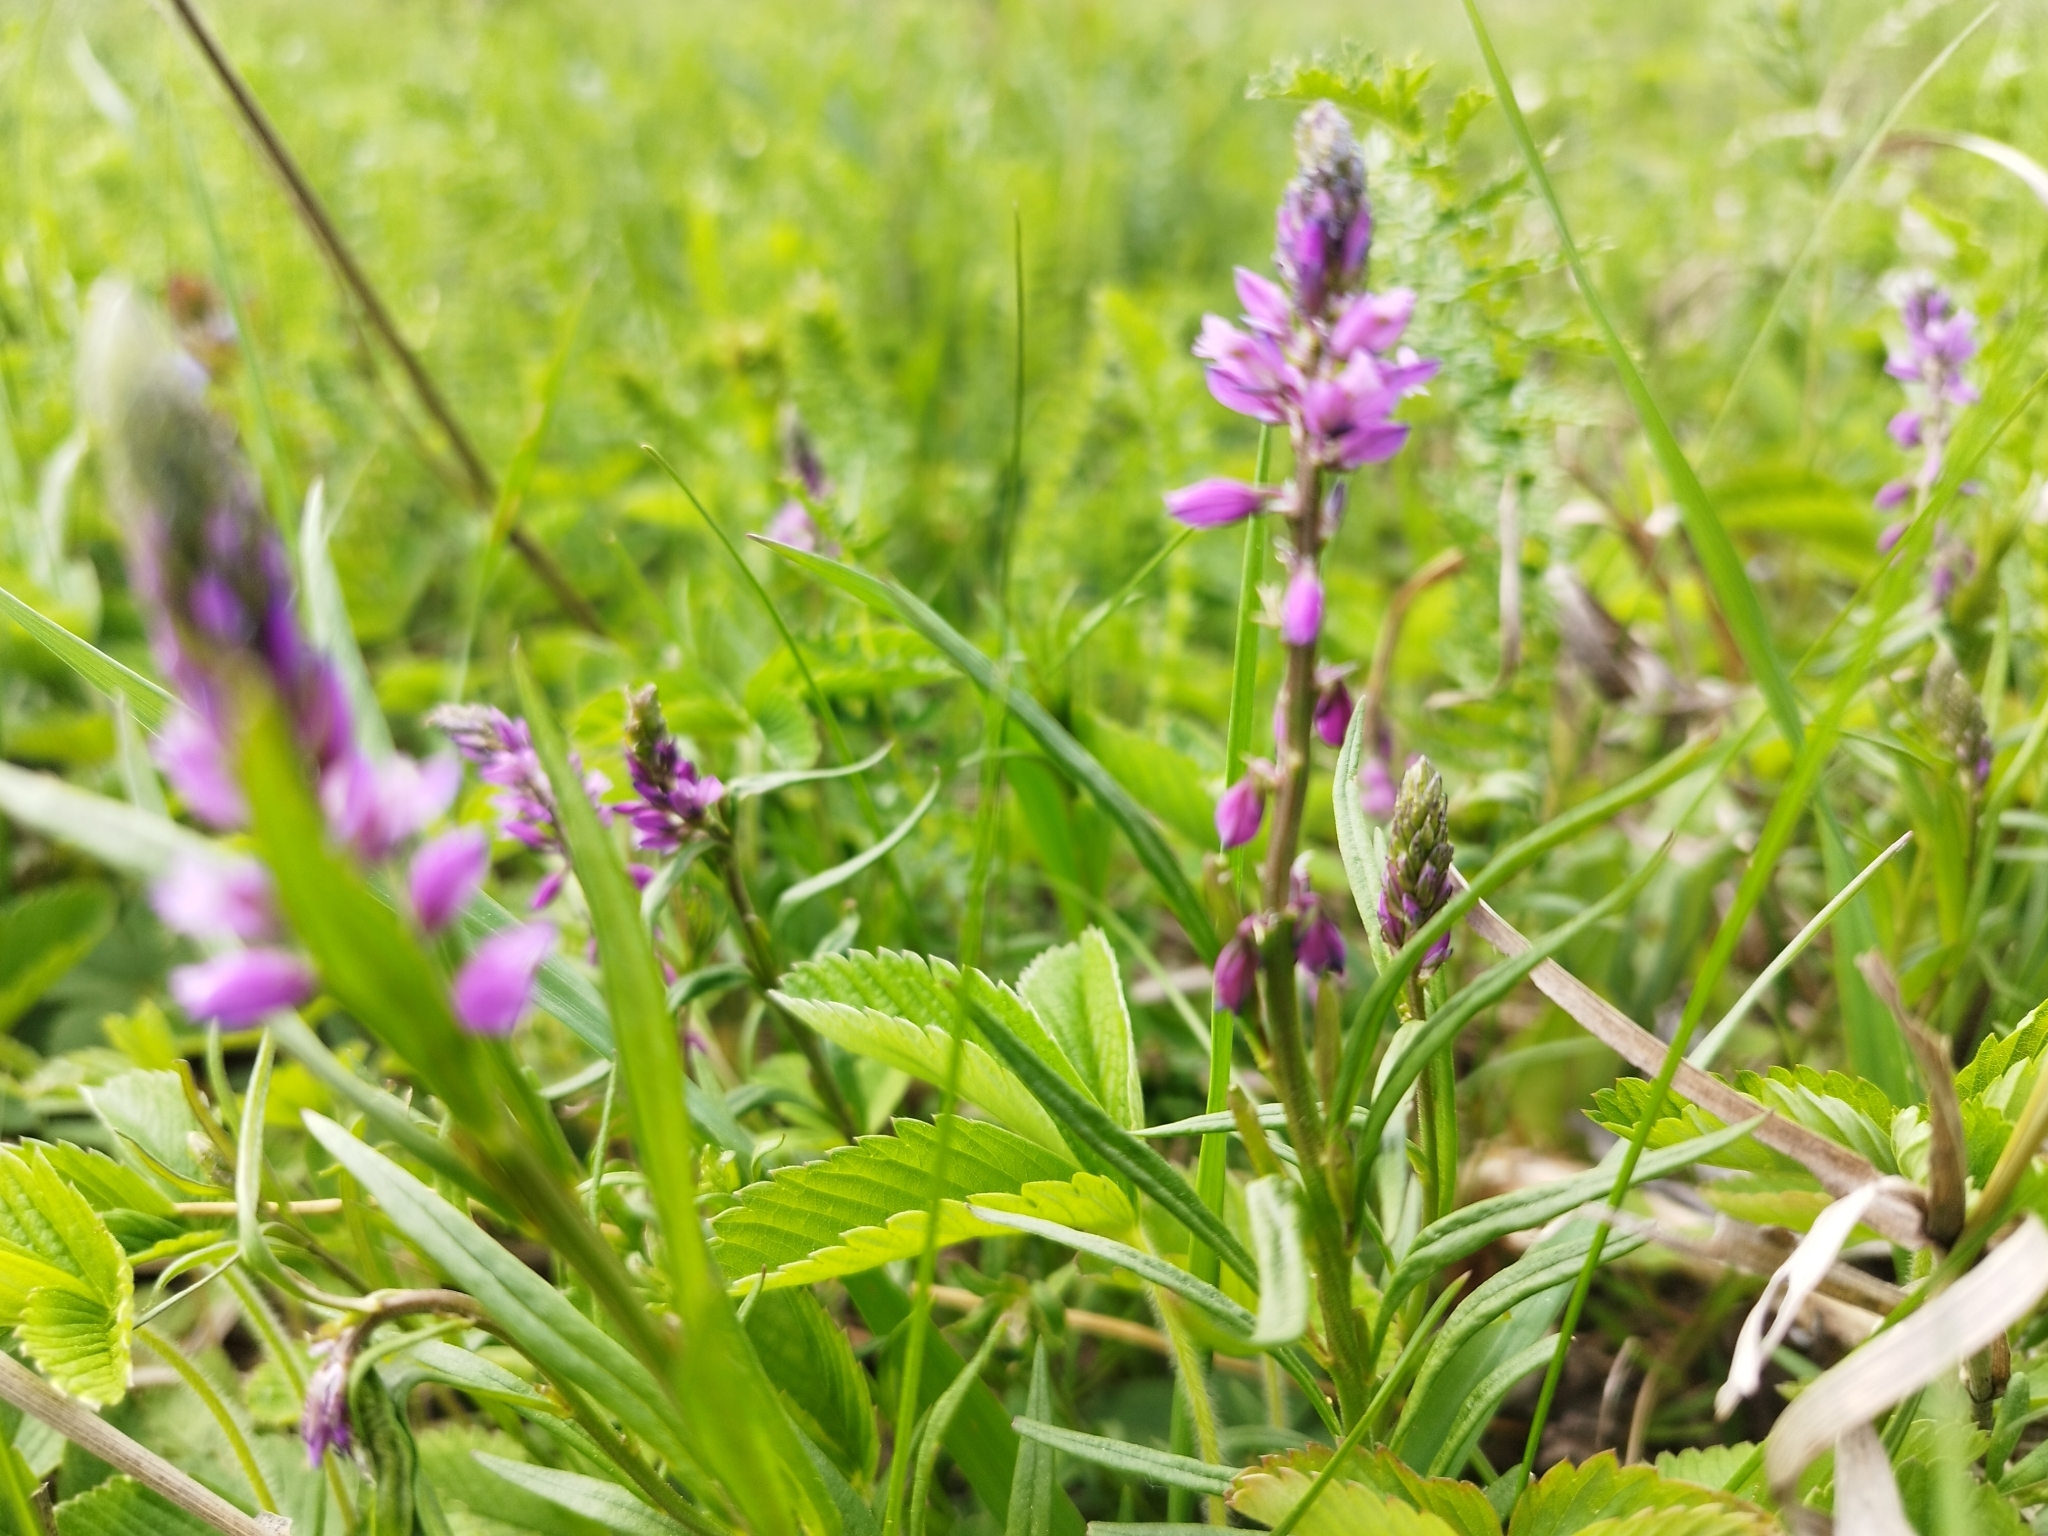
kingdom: Plantae
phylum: Tracheophyta
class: Magnoliopsida
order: Fabales
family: Polygalaceae
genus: Polygala
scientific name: Polygala comosa
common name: Tufted milkwort
